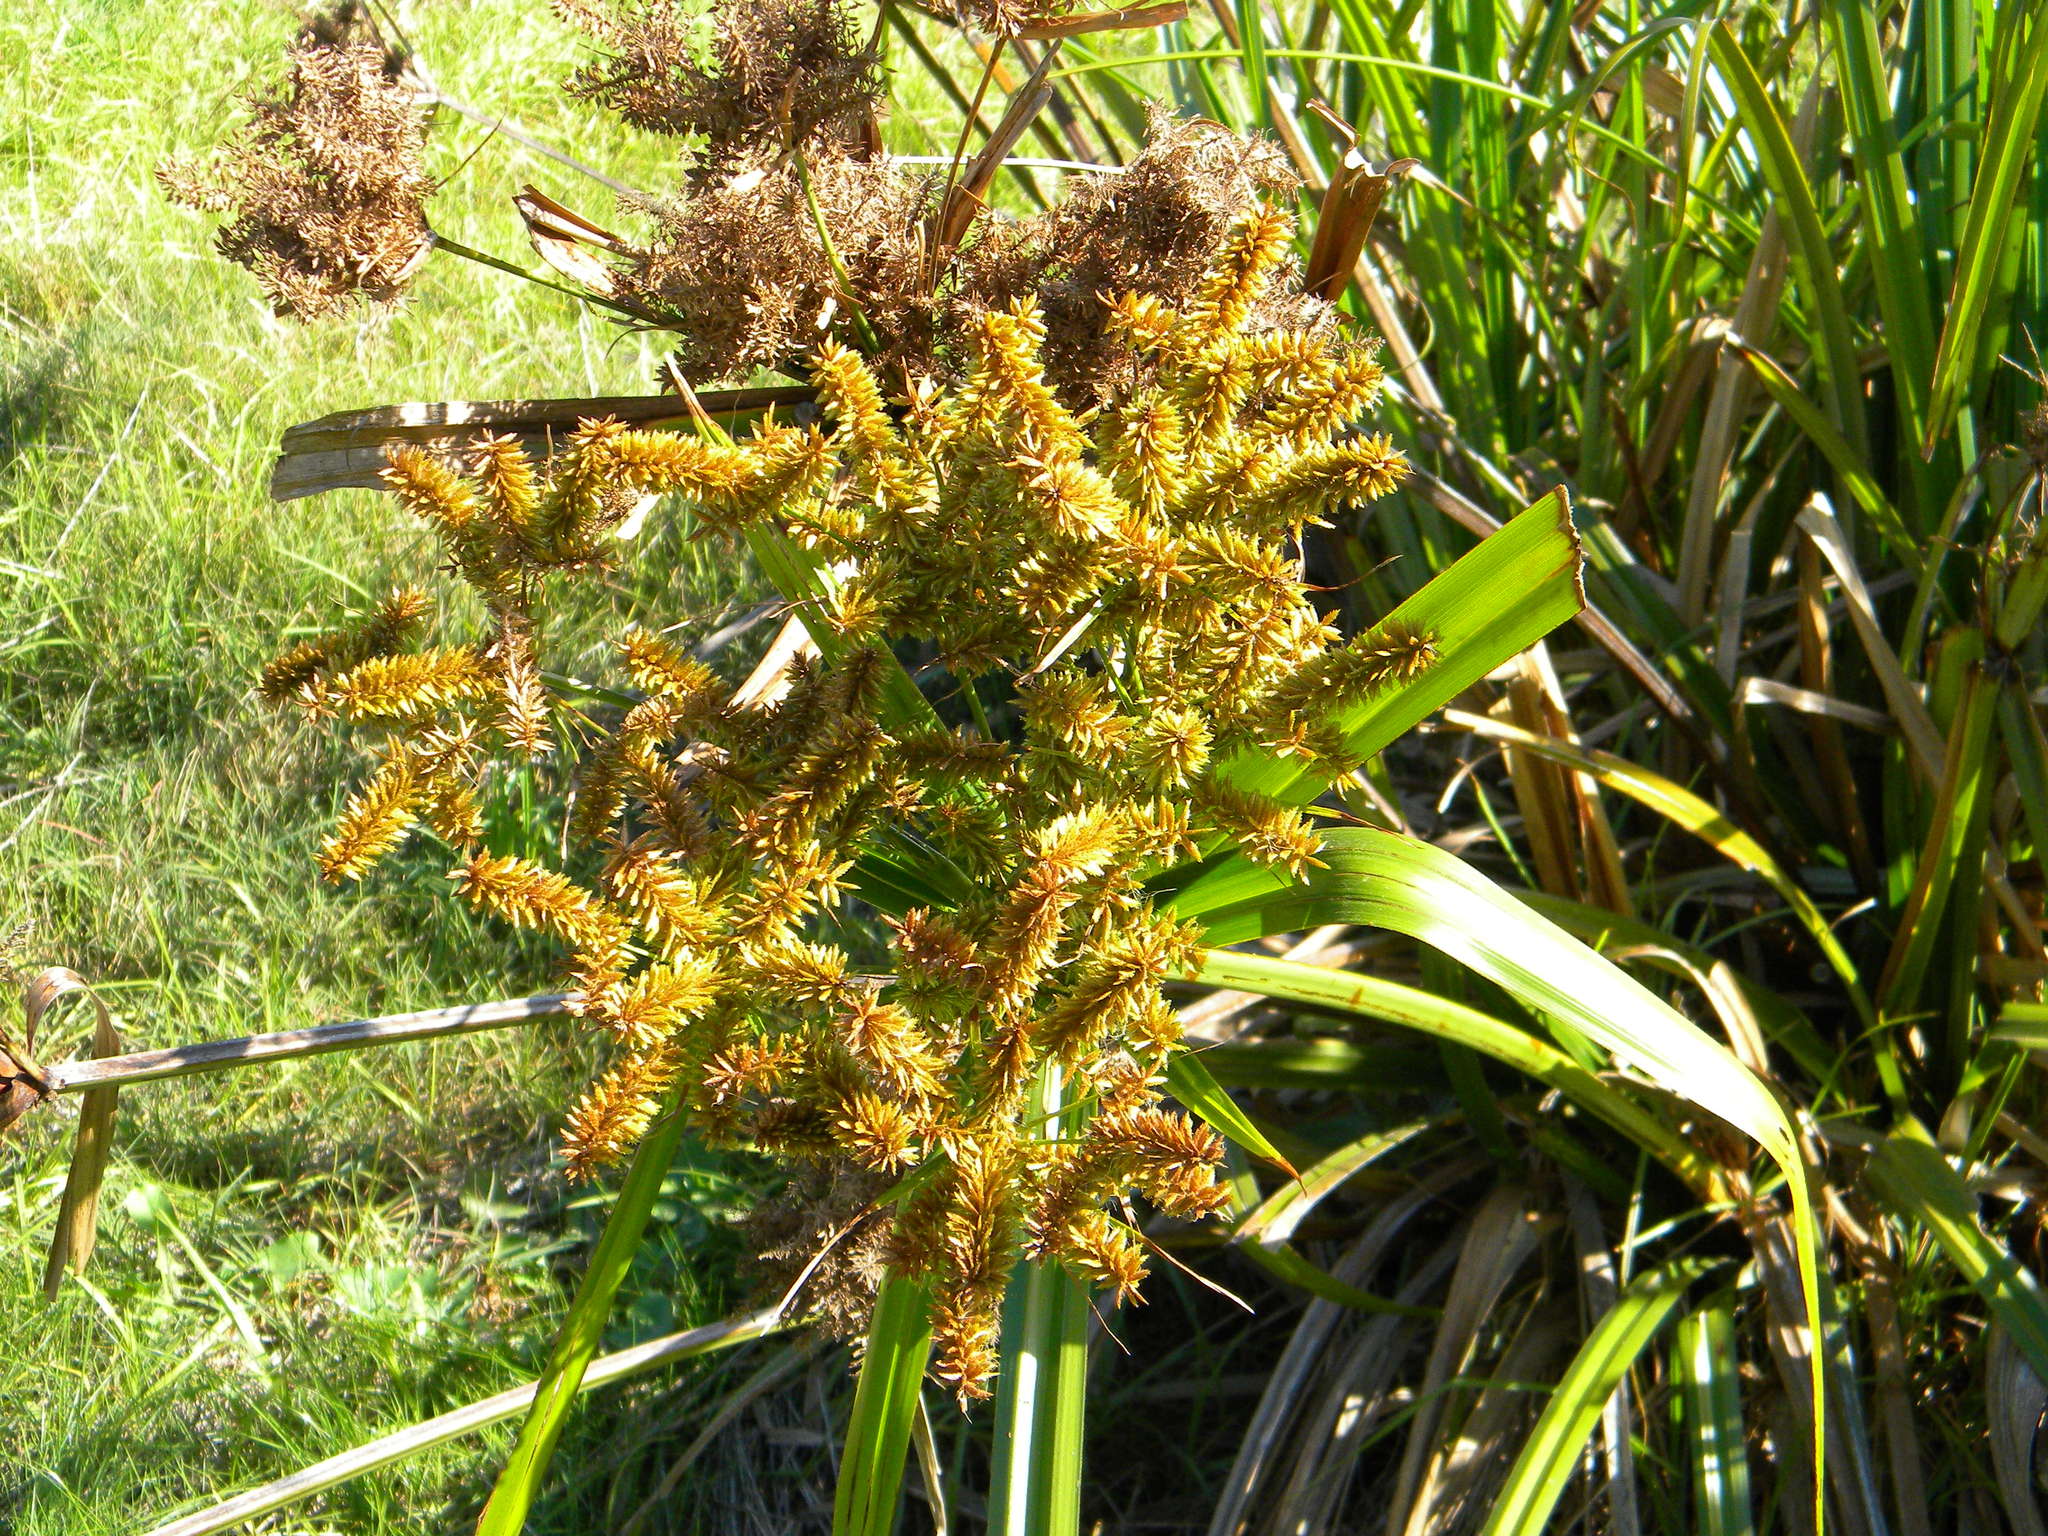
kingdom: Plantae
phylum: Tracheophyta
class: Liliopsida
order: Poales
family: Cyperaceae
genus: Cyperus
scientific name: Cyperus dives
